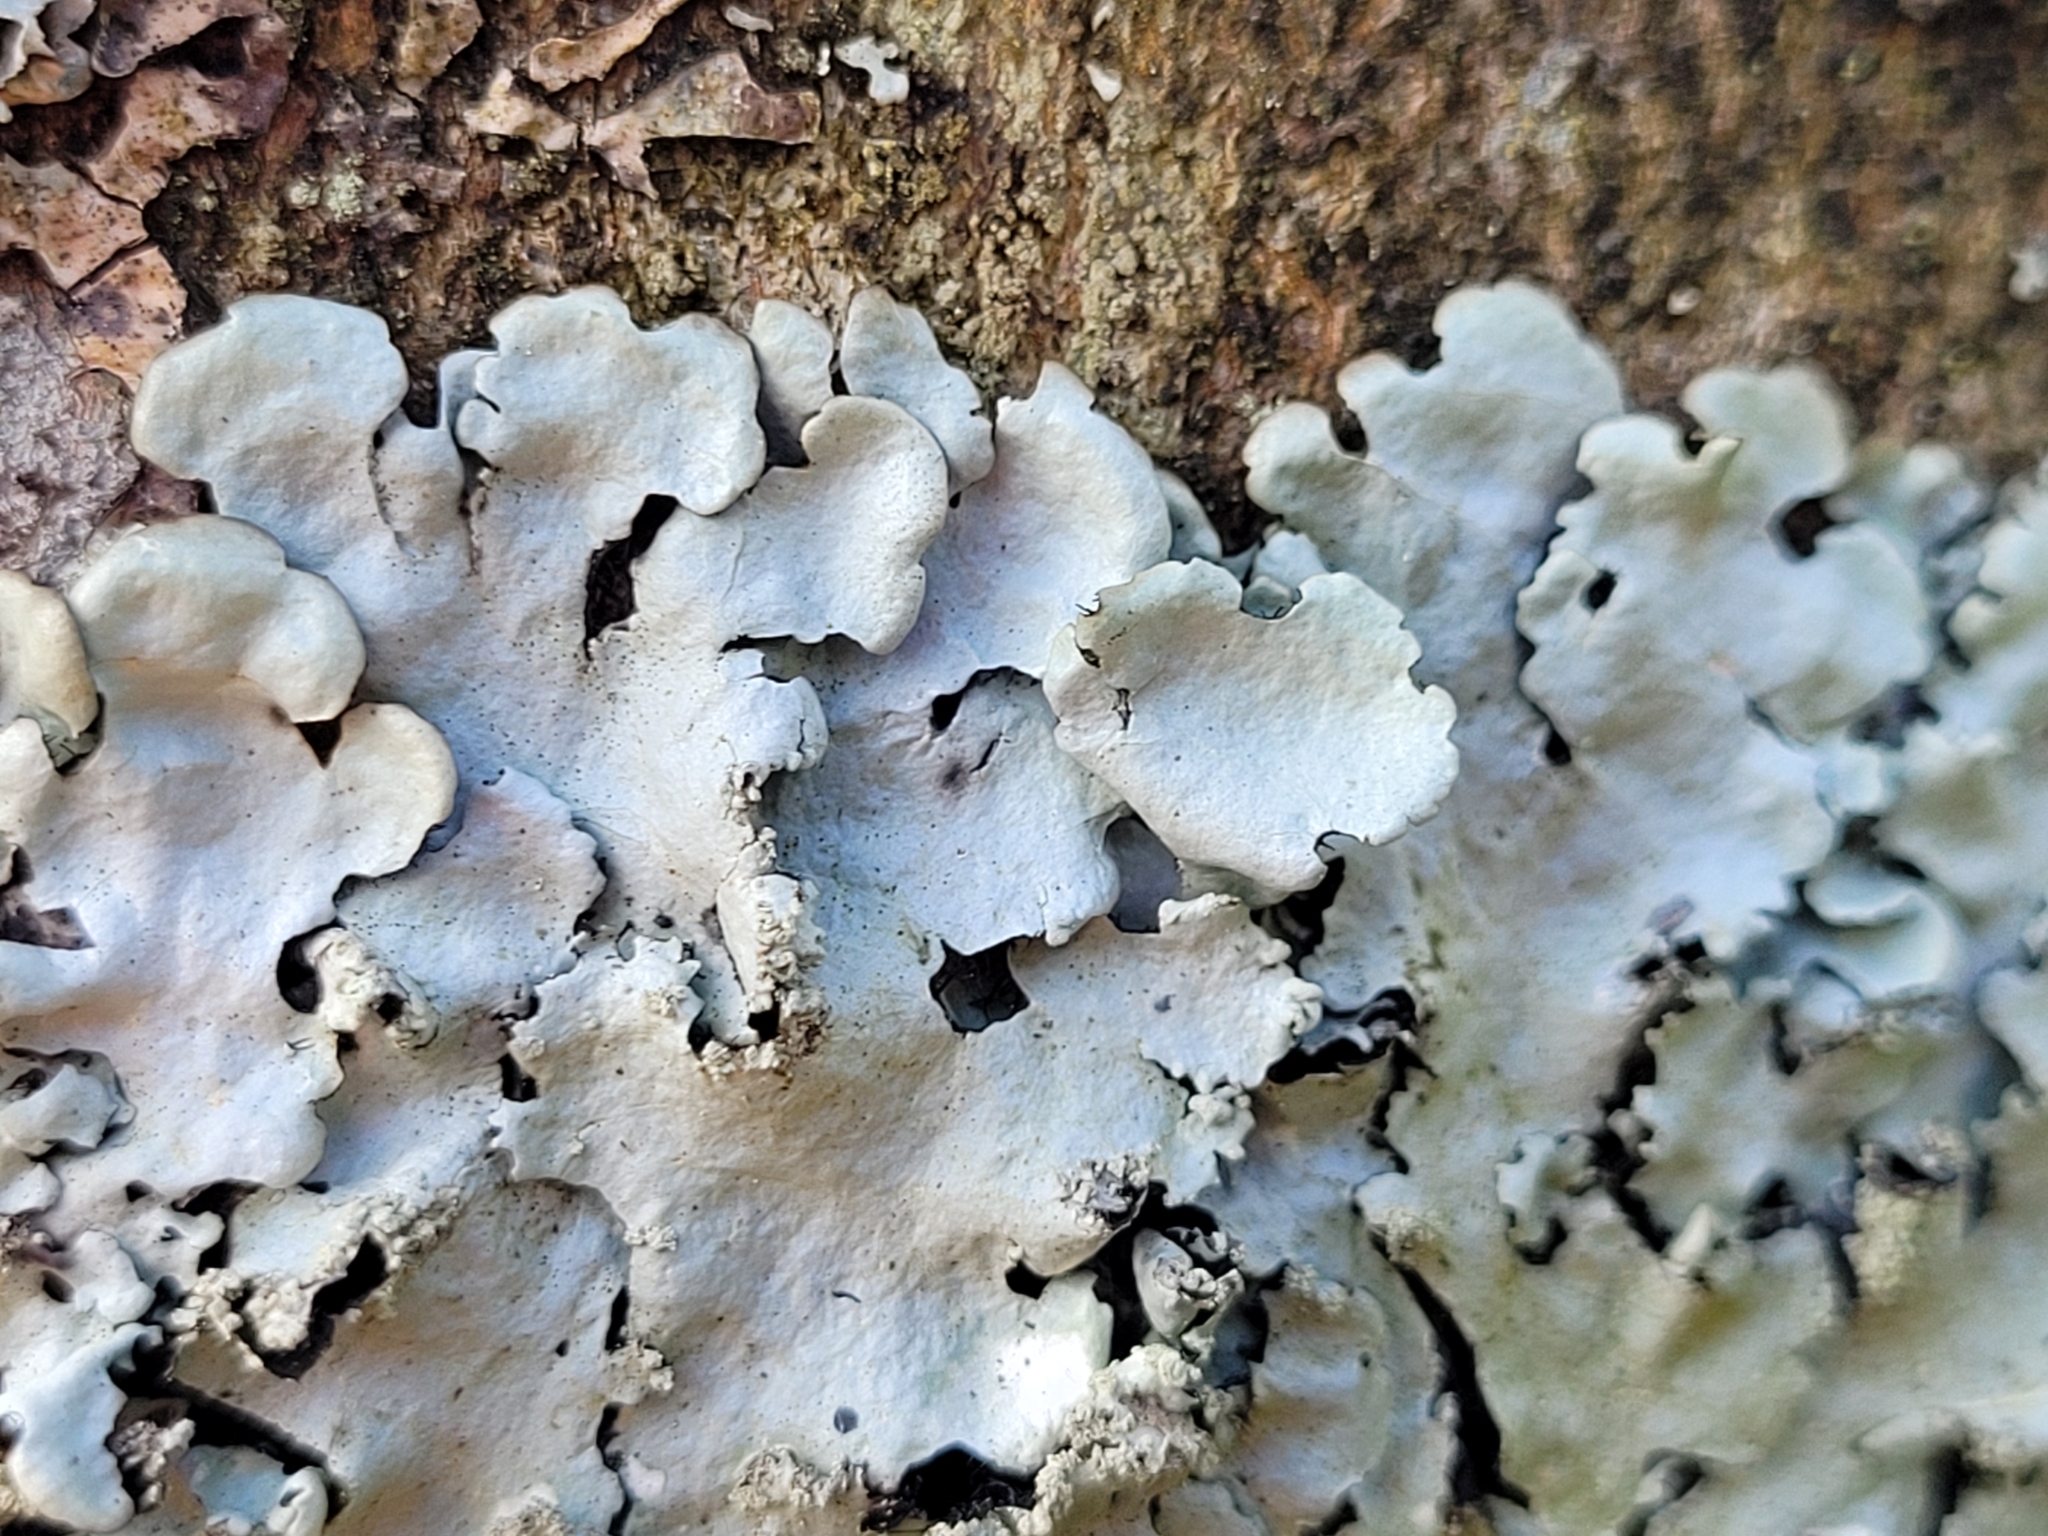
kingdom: Fungi
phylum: Ascomycota
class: Lecanoromycetes
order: Lecanorales
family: Parmeliaceae
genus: Hypotrachyna
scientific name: Hypotrachyna afrorevoluta
